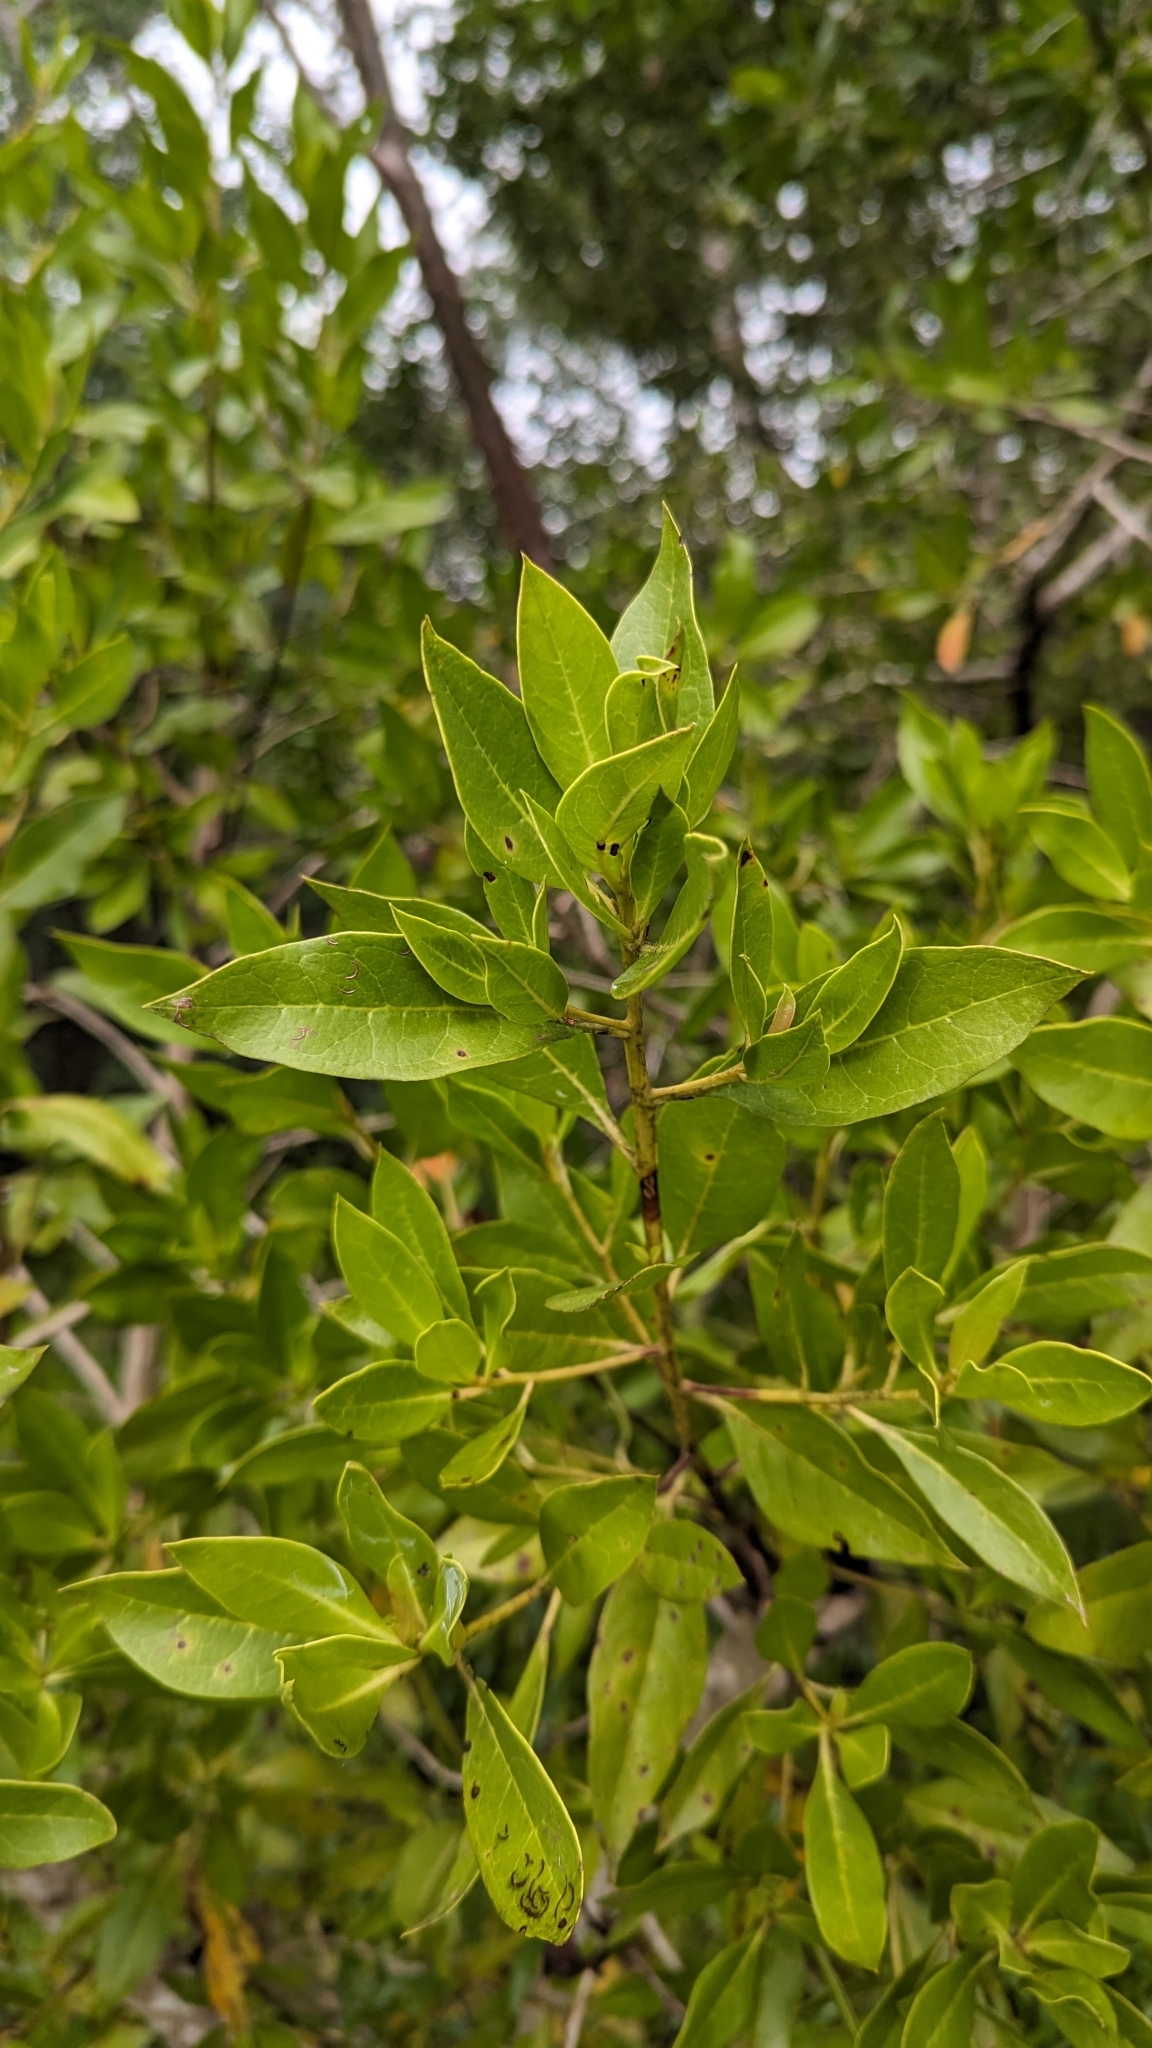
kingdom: Plantae
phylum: Tracheophyta
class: Magnoliopsida
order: Myrtales
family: Combretaceae
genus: Conocarpus
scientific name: Conocarpus erectus
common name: Button mangrove
